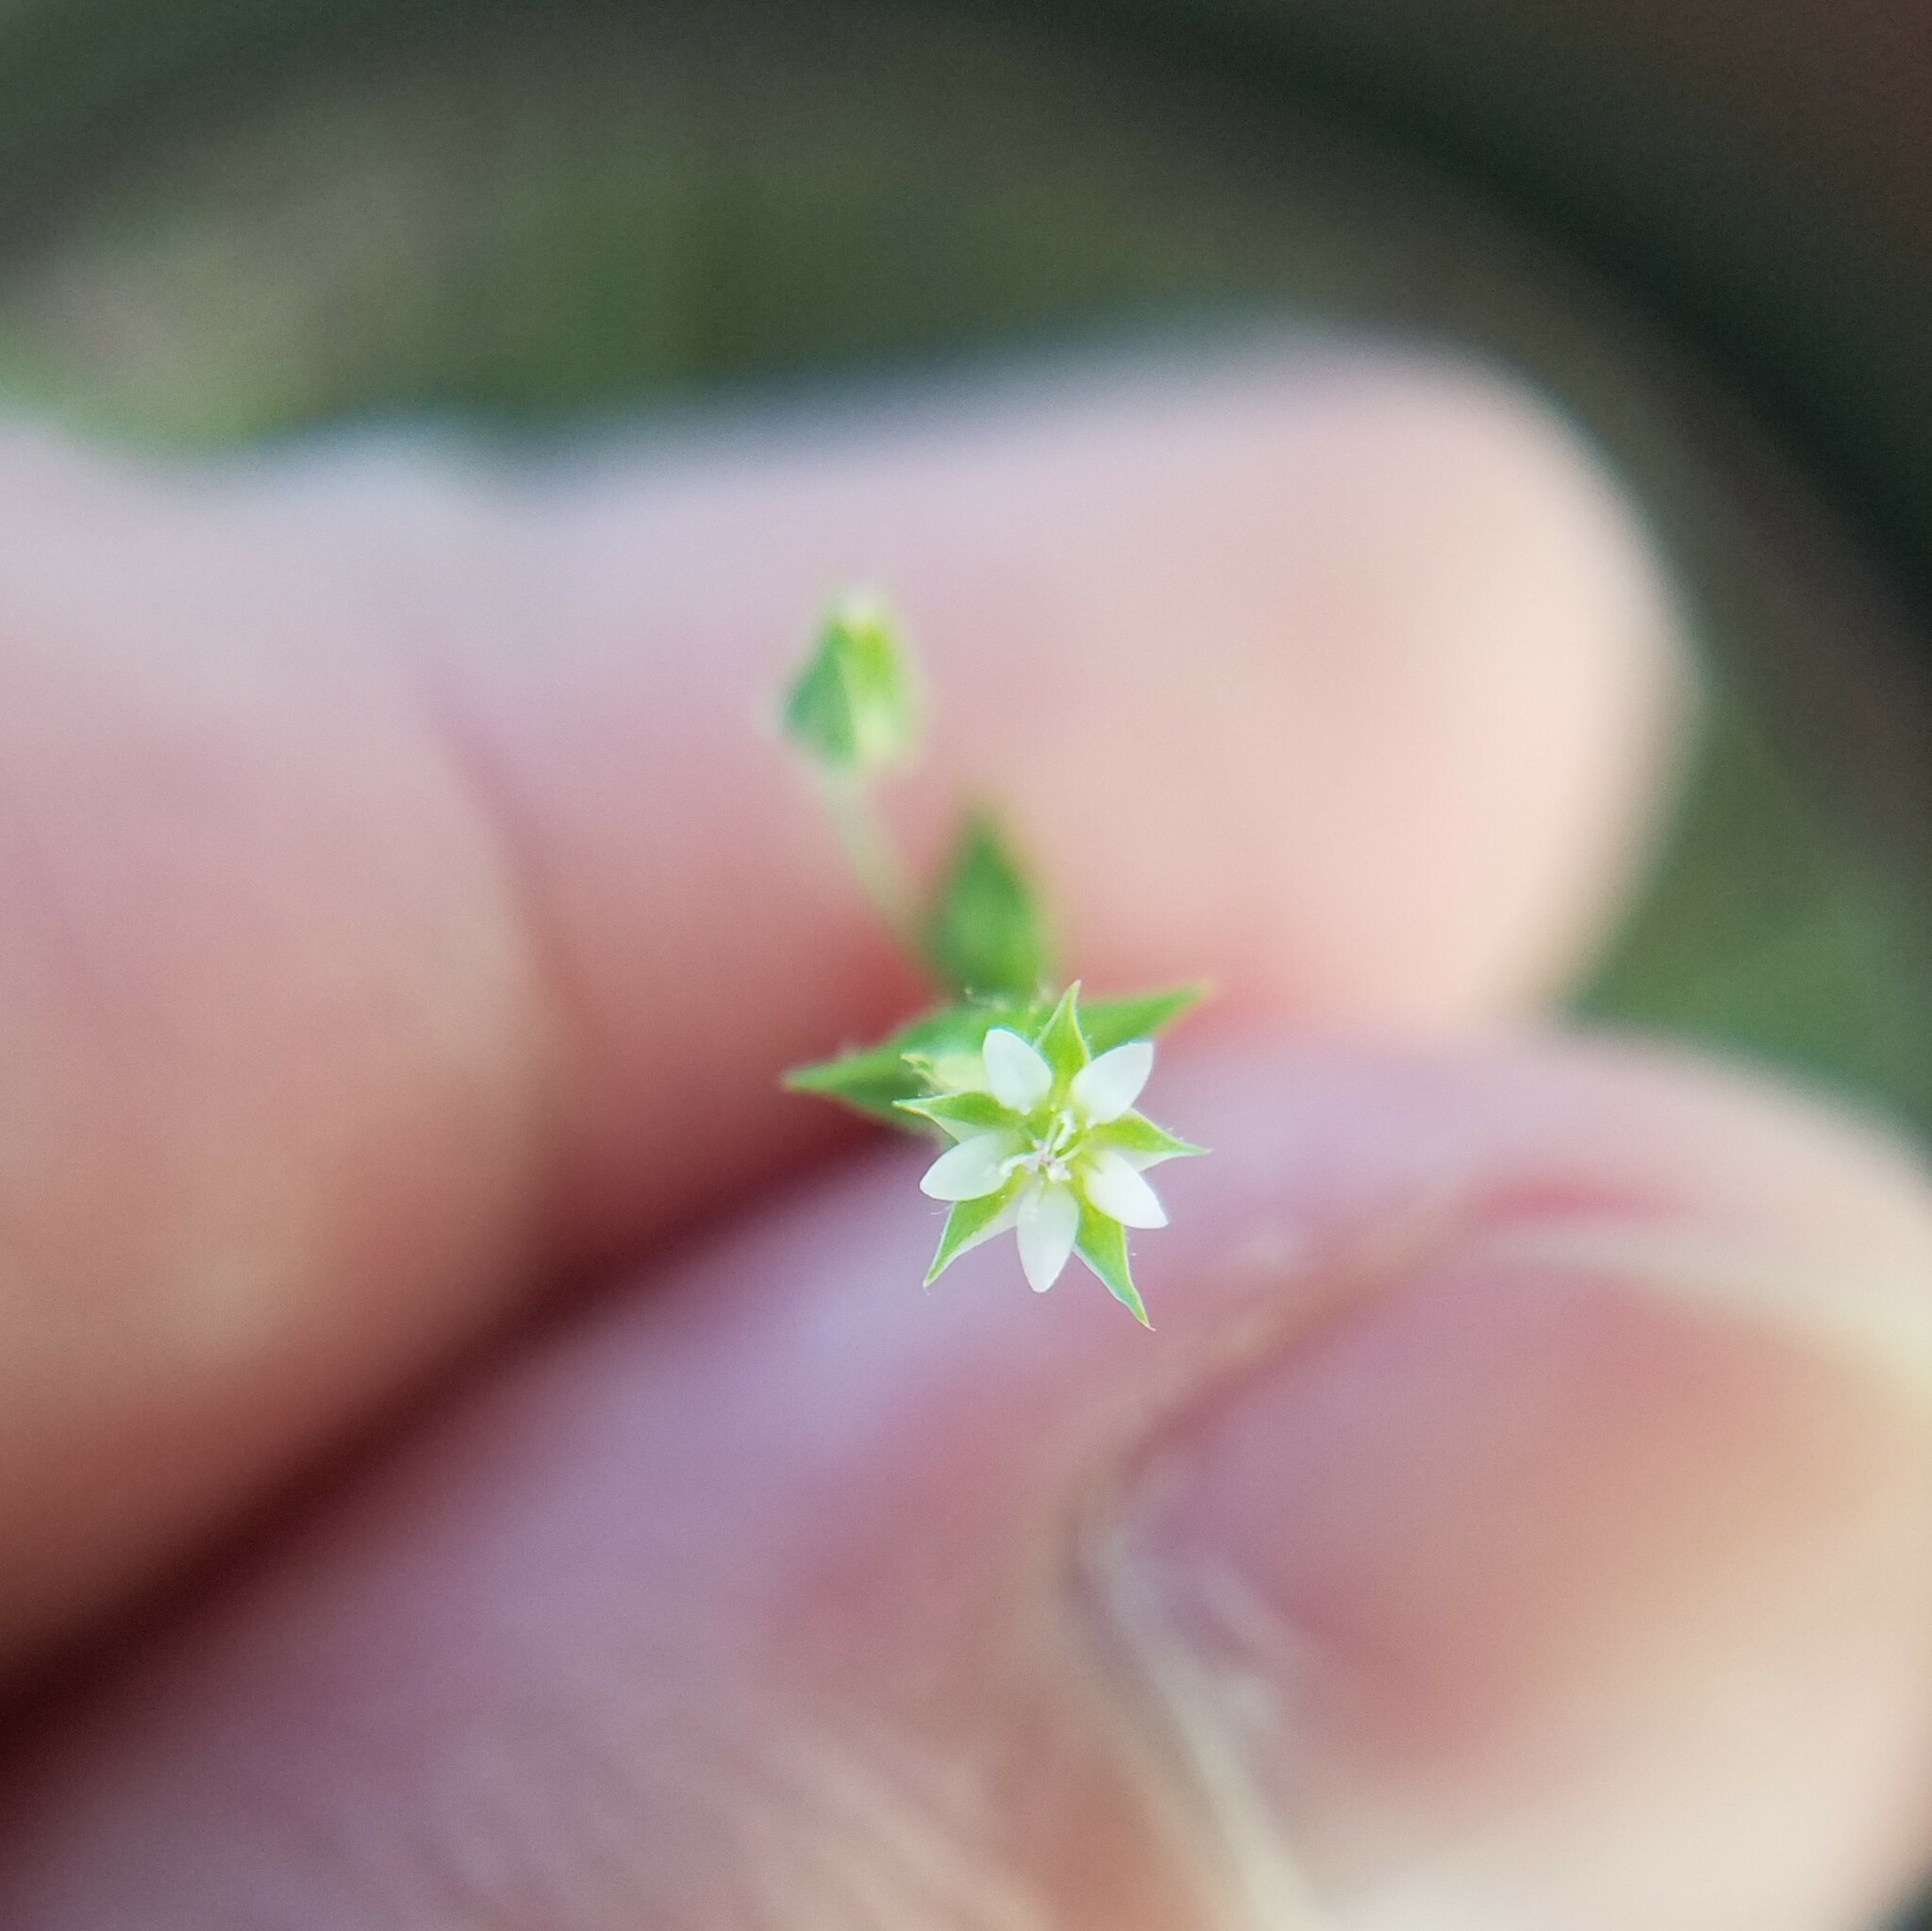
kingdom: Plantae
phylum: Tracheophyta
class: Magnoliopsida
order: Caryophyllales
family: Caryophyllaceae
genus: Arenaria
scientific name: Arenaria serpyllifolia
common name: Thyme-leaved sandwort
